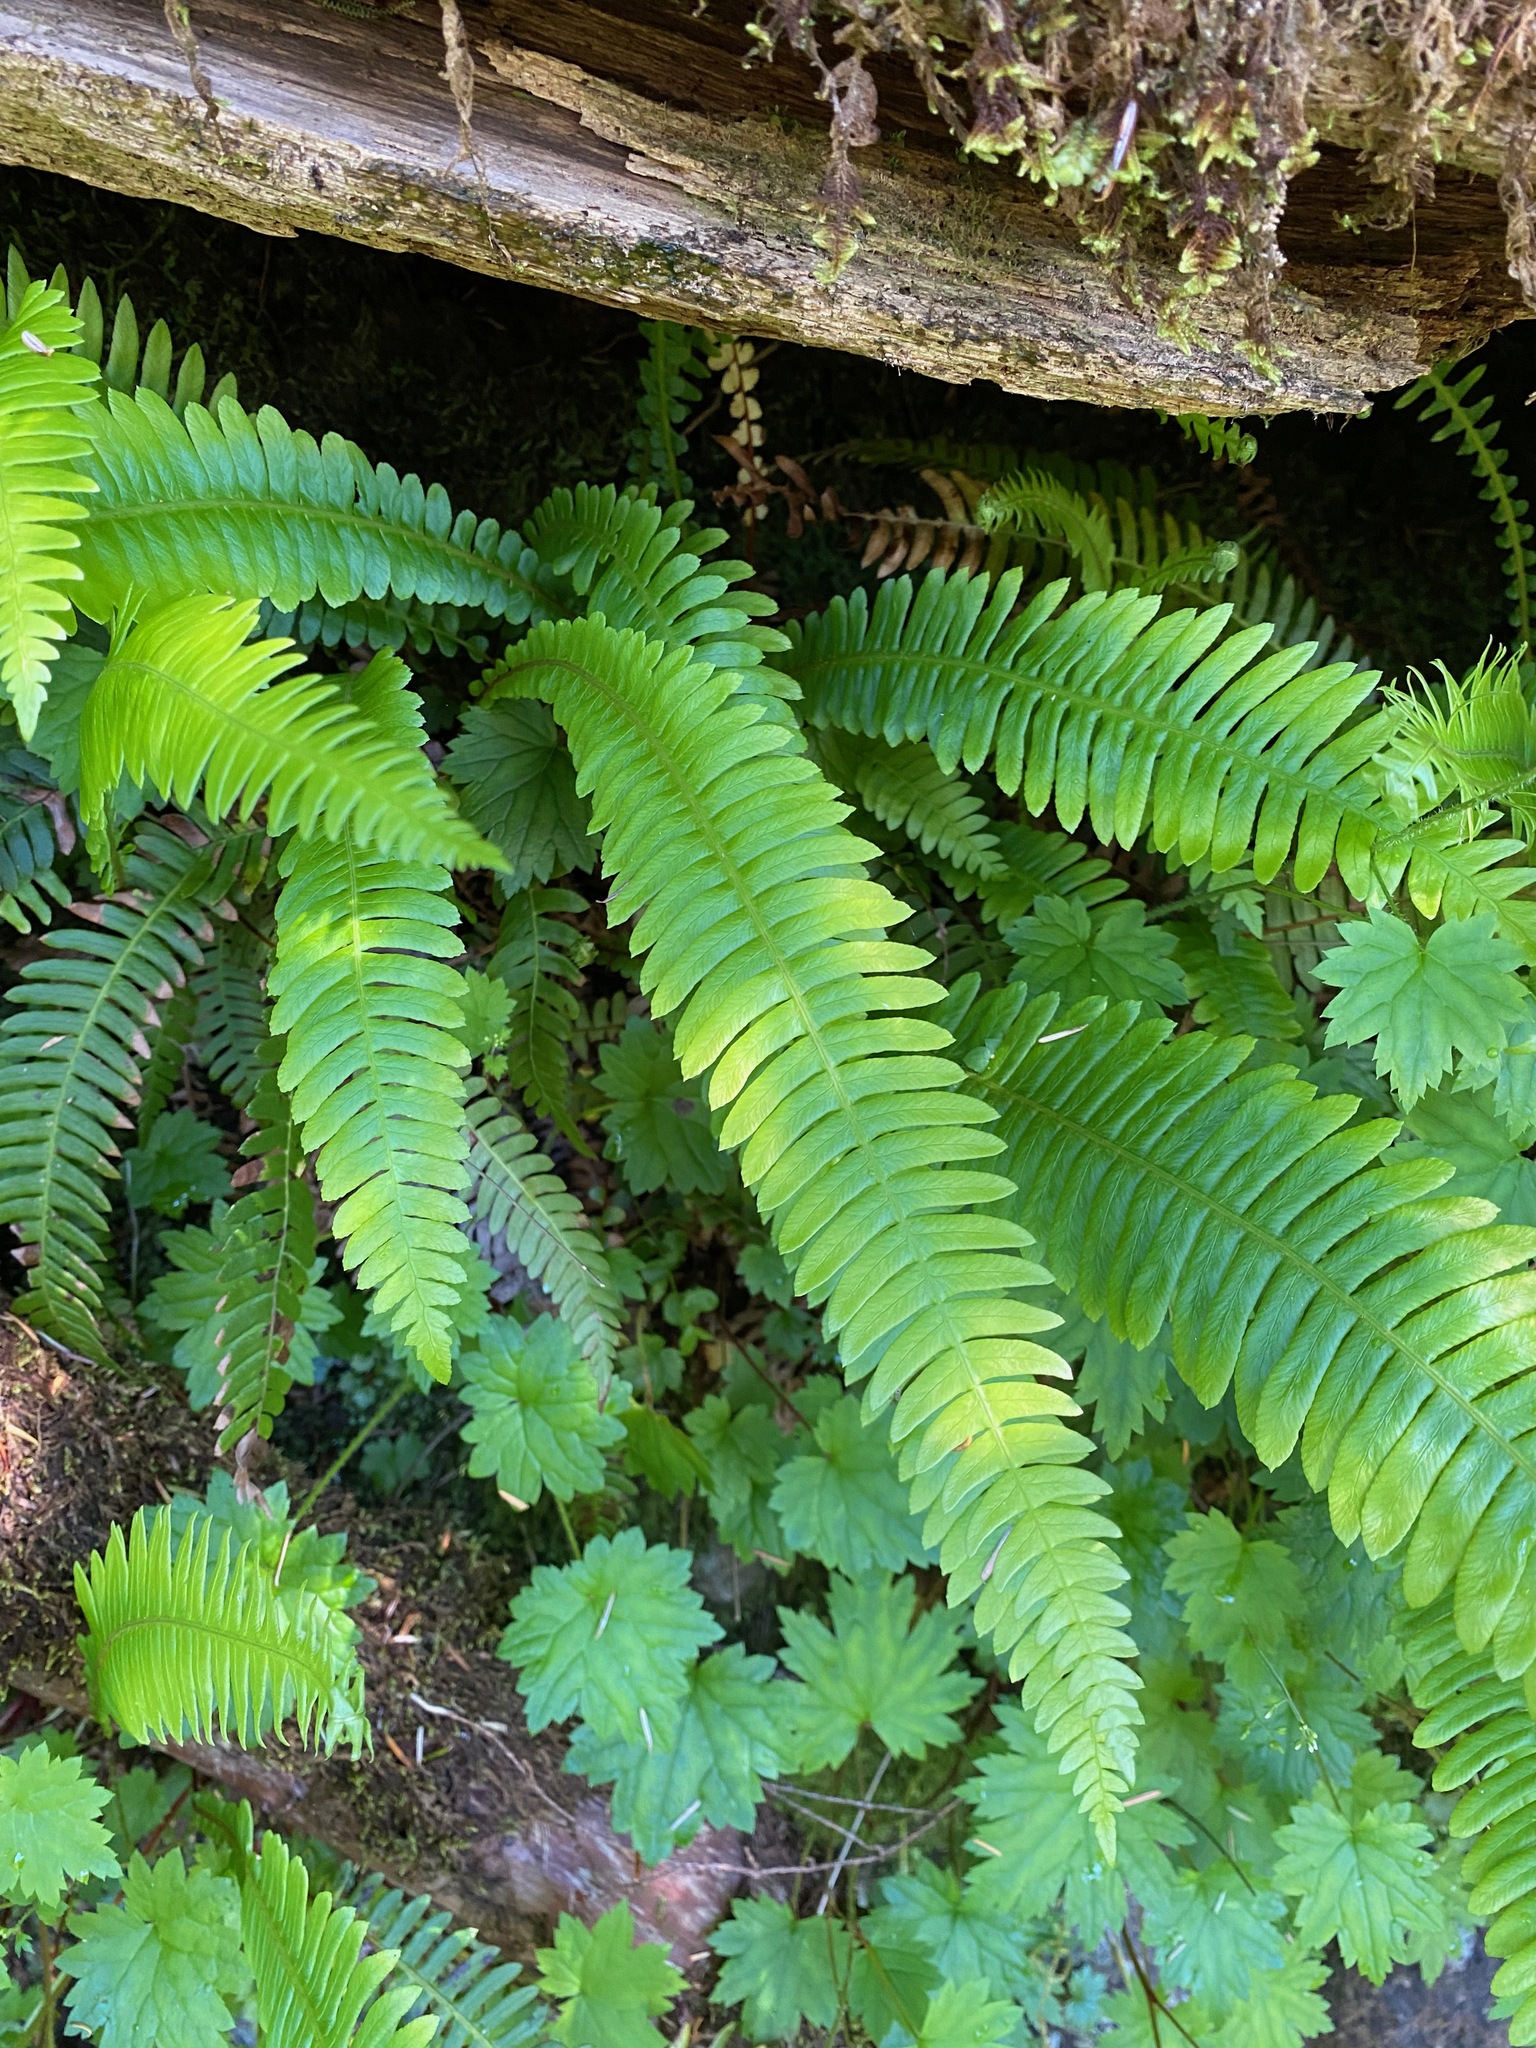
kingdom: Plantae
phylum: Tracheophyta
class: Polypodiopsida
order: Polypodiales
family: Blechnaceae
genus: Struthiopteris
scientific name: Struthiopteris spicant
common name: Deer fern
